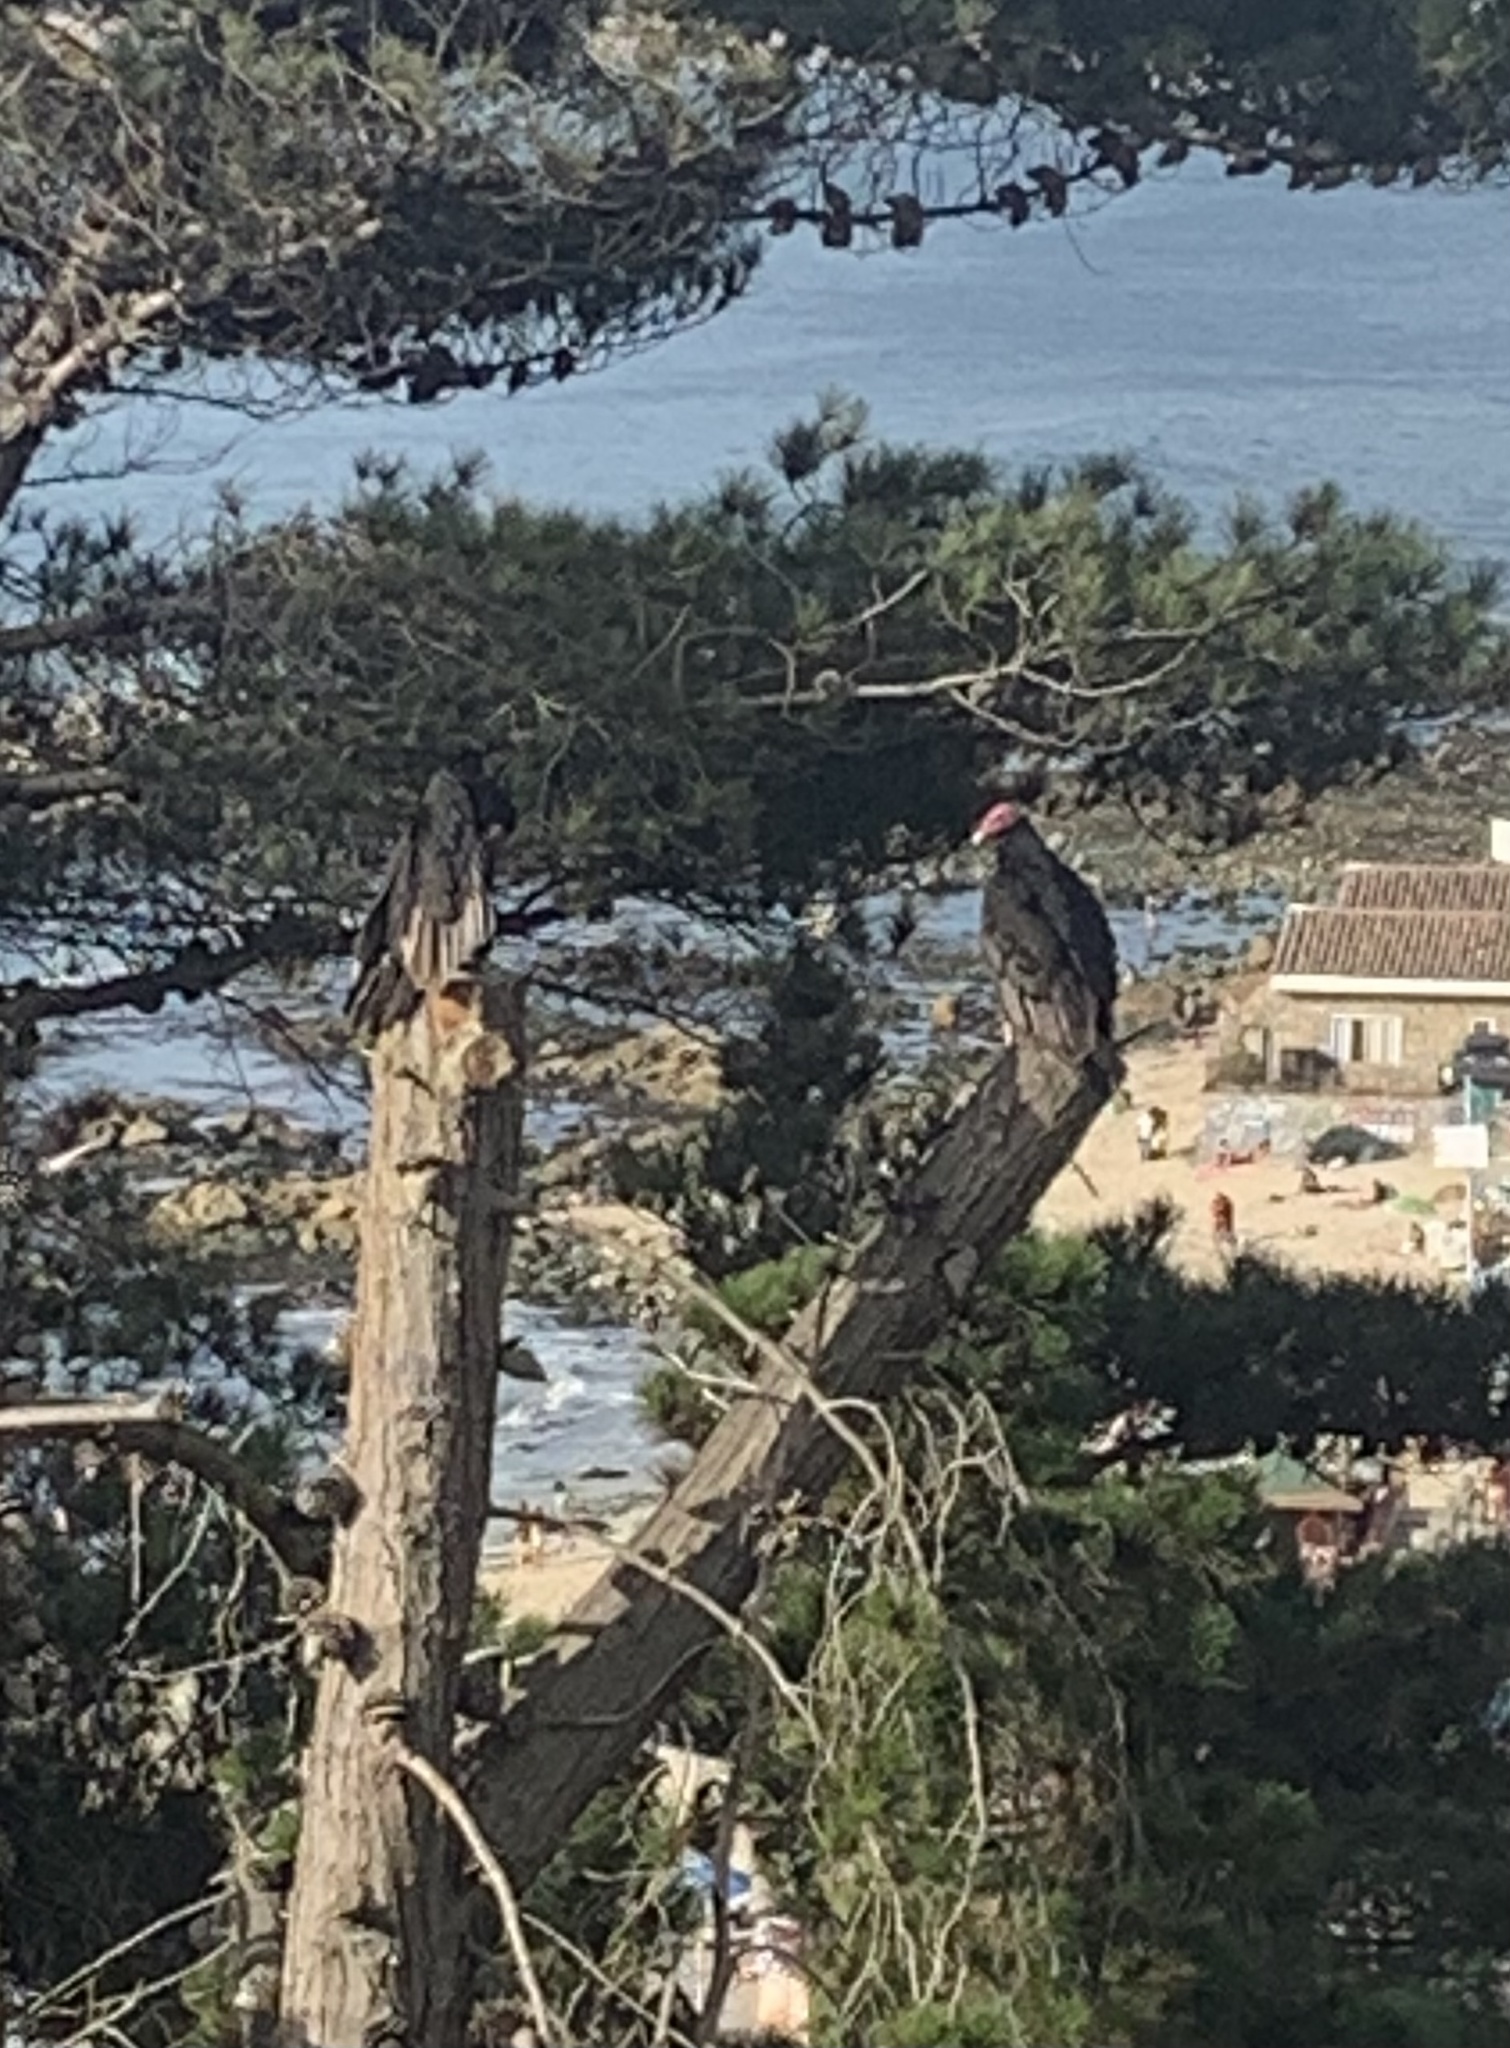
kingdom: Animalia
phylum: Chordata
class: Aves
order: Accipitriformes
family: Cathartidae
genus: Cathartes
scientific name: Cathartes aura
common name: Turkey vulture
